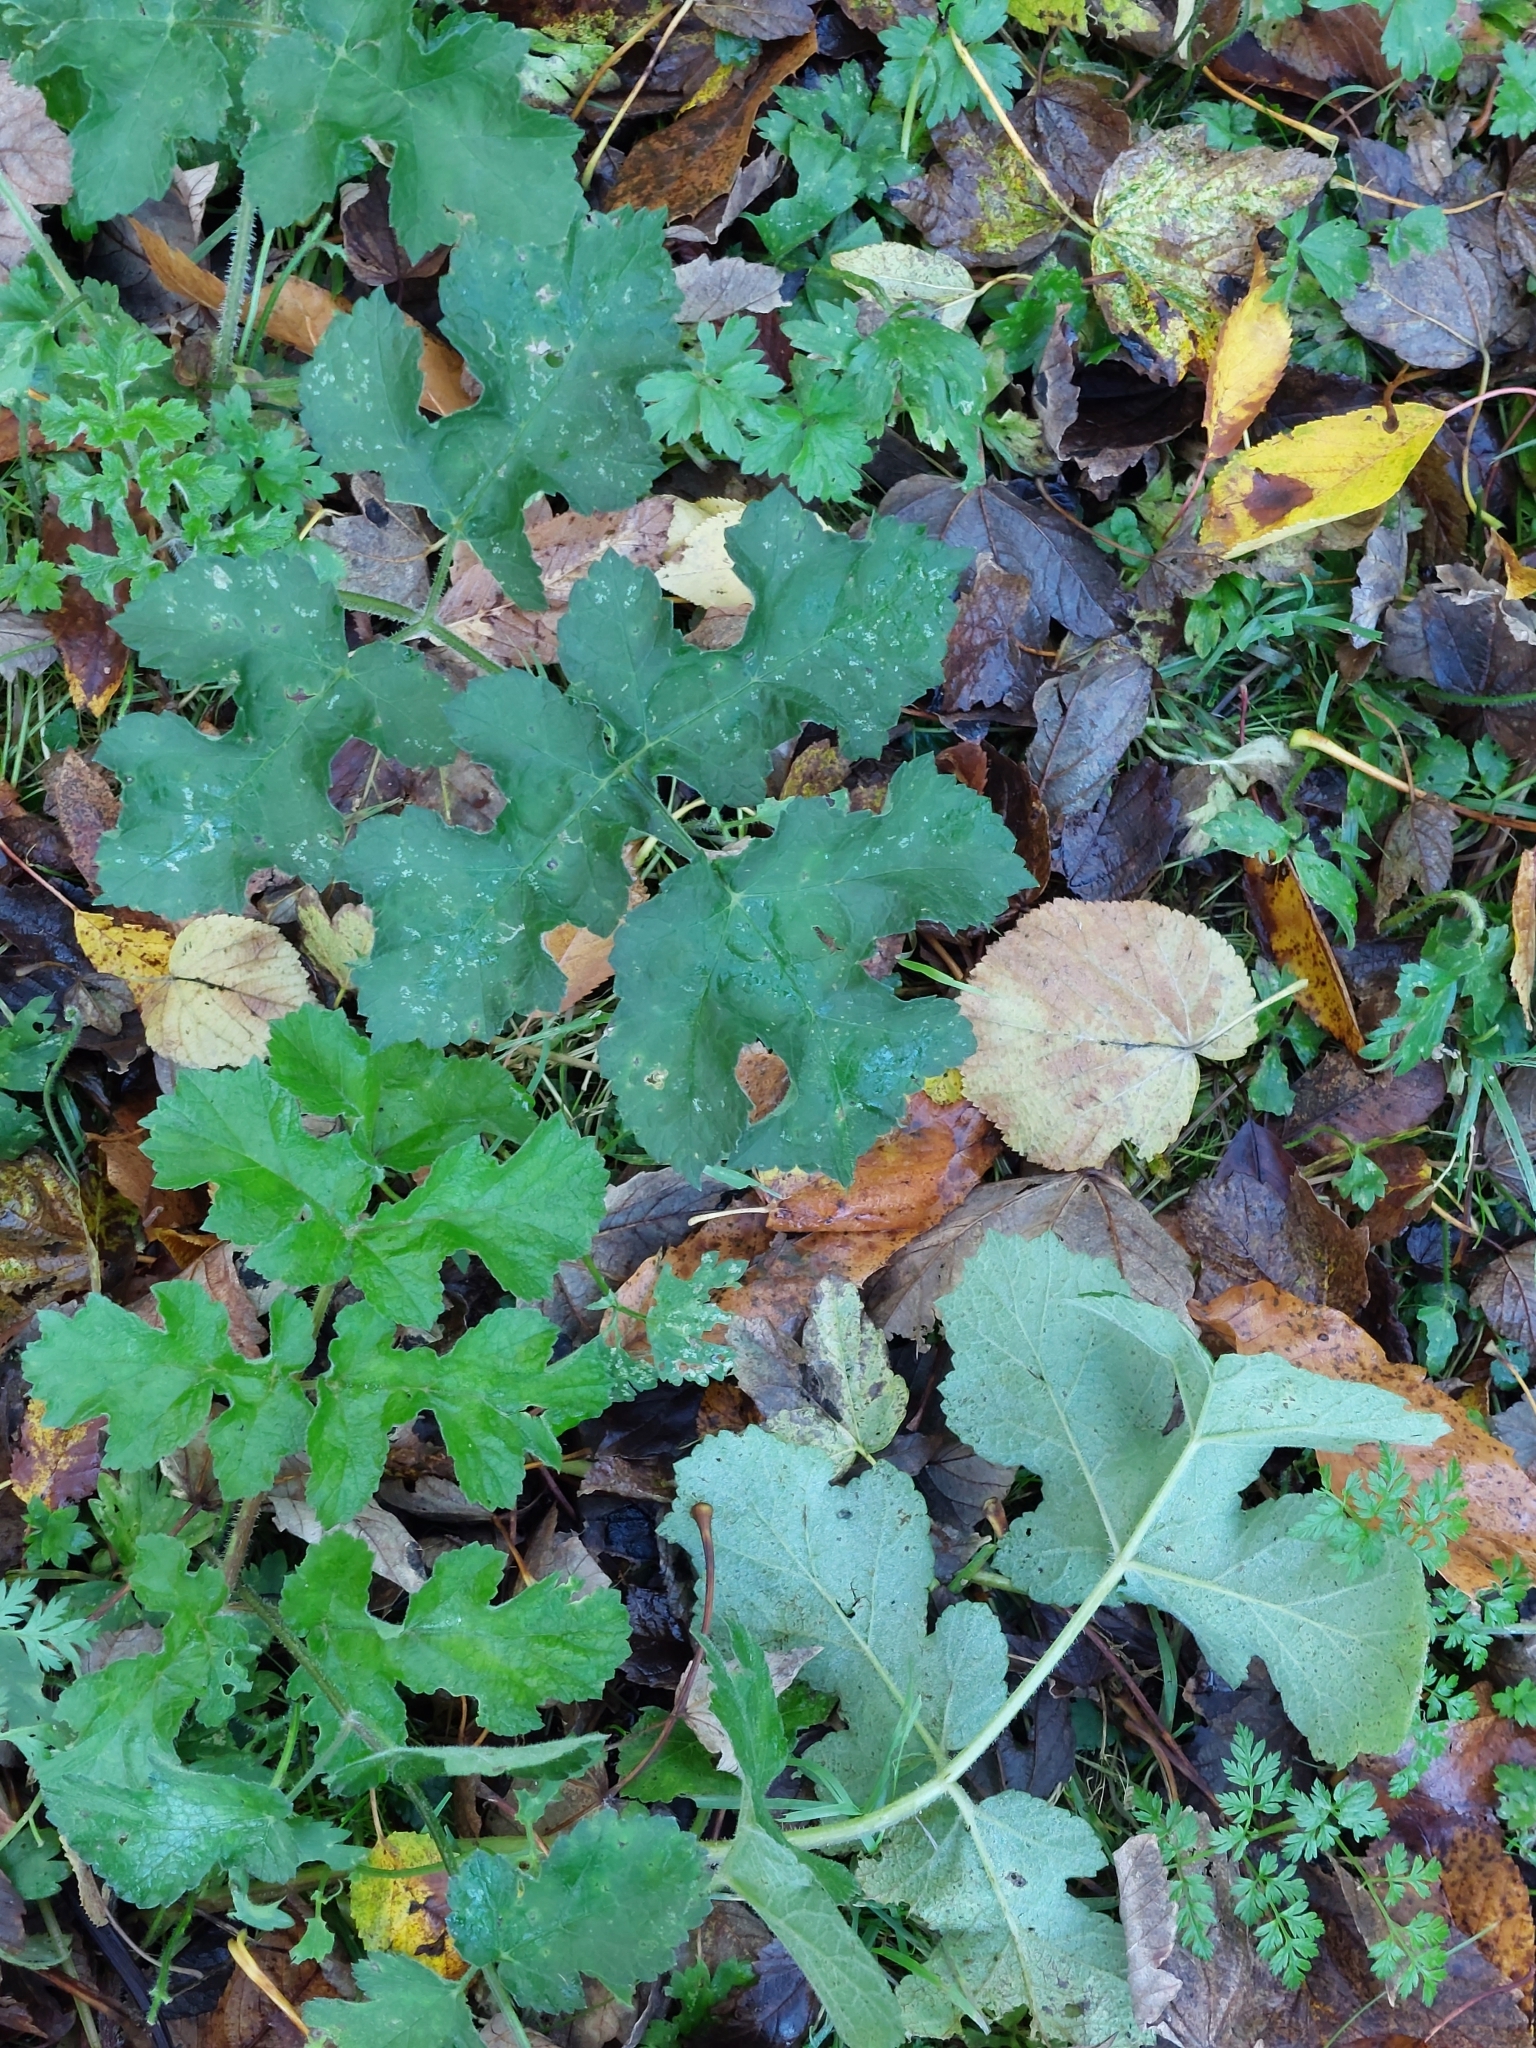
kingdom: Plantae
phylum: Tracheophyta
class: Magnoliopsida
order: Apiales
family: Apiaceae
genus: Heracleum
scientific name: Heracleum sphondylium
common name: Hogweed
